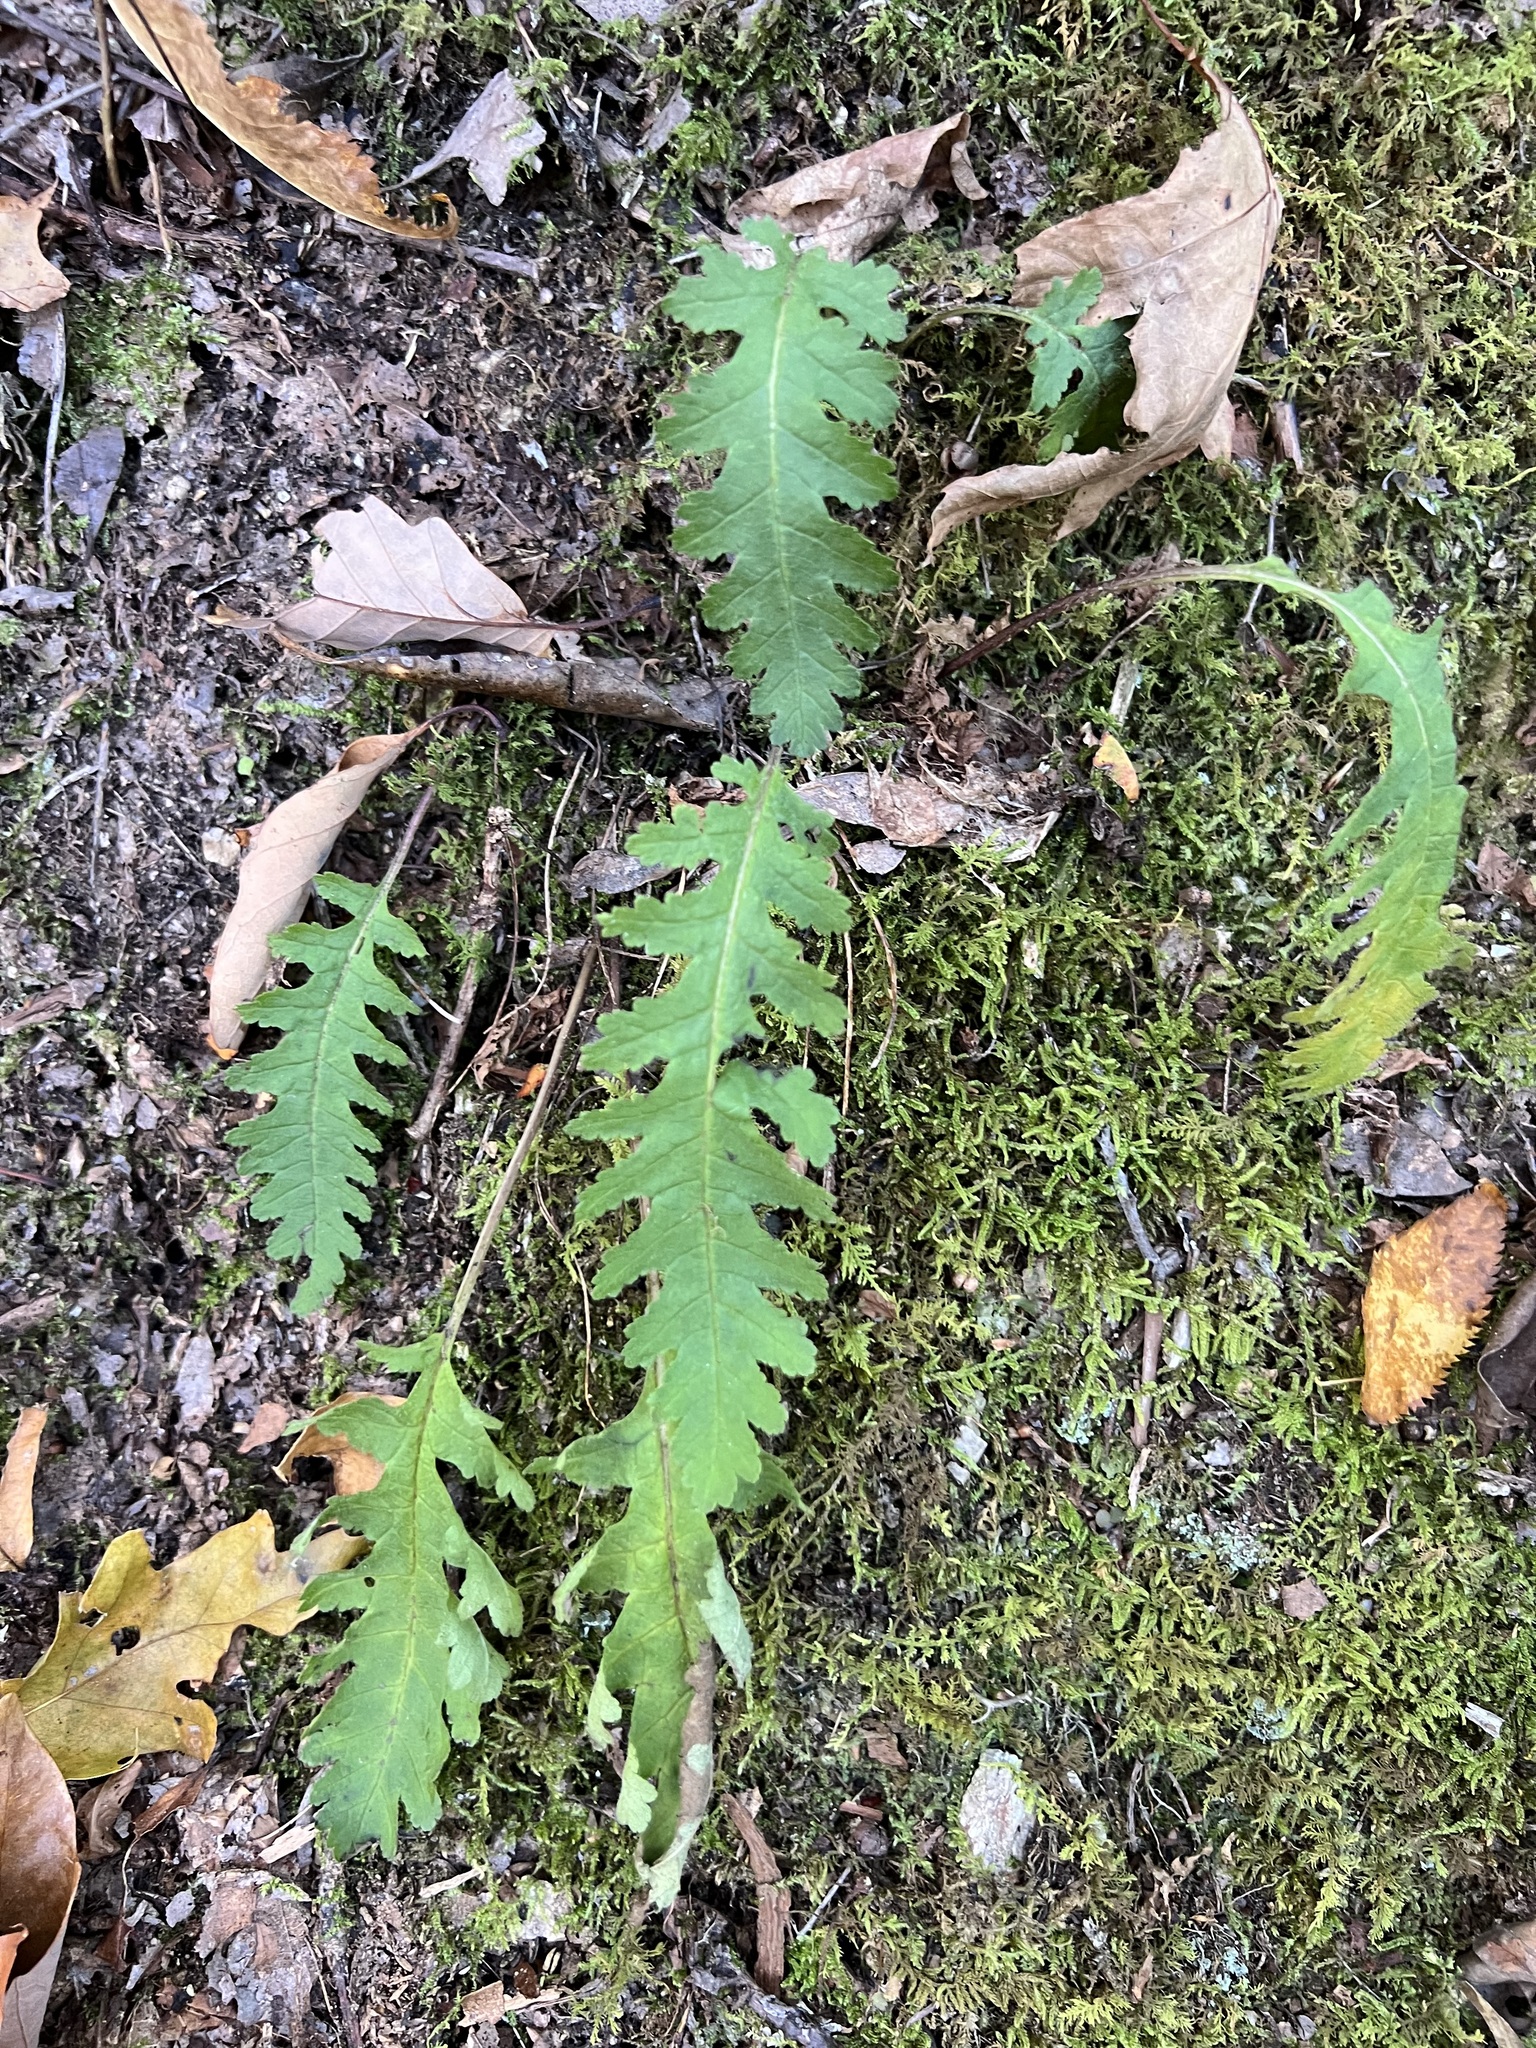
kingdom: Plantae
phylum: Tracheophyta
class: Magnoliopsida
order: Lamiales
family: Orobanchaceae
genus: Pedicularis
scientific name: Pedicularis canadensis
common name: Early lousewort
